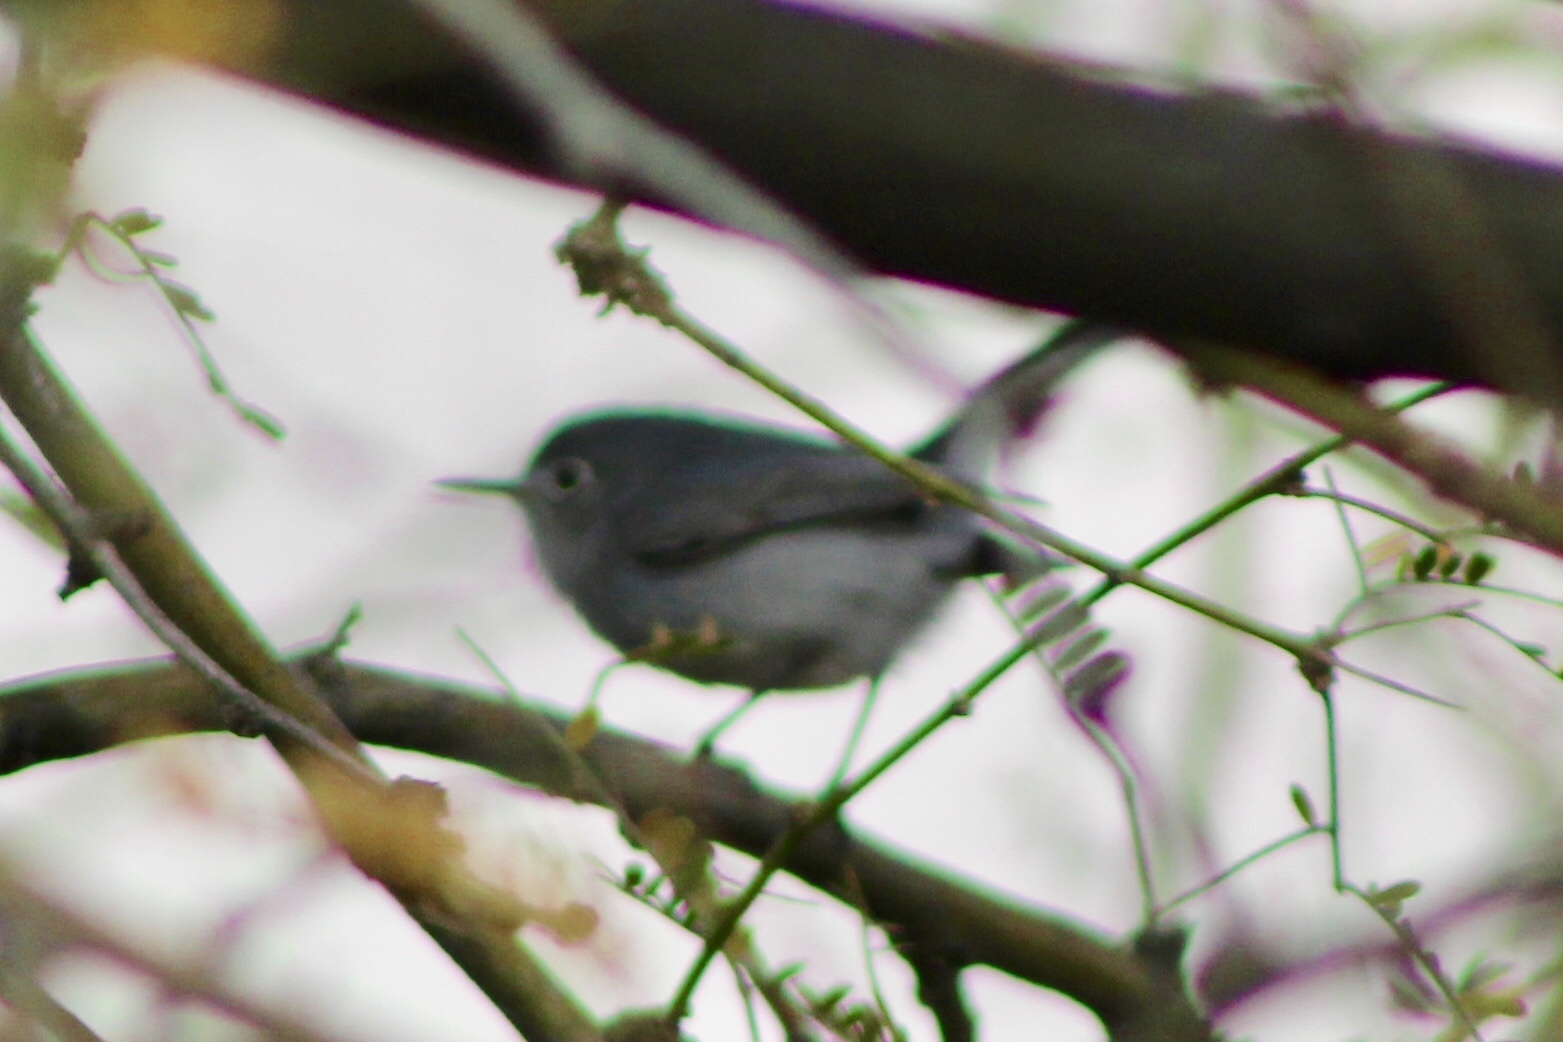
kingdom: Animalia
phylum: Chordata
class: Aves
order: Passeriformes
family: Polioptilidae
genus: Polioptila
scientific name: Polioptila caerulea
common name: Blue-gray gnatcatcher
